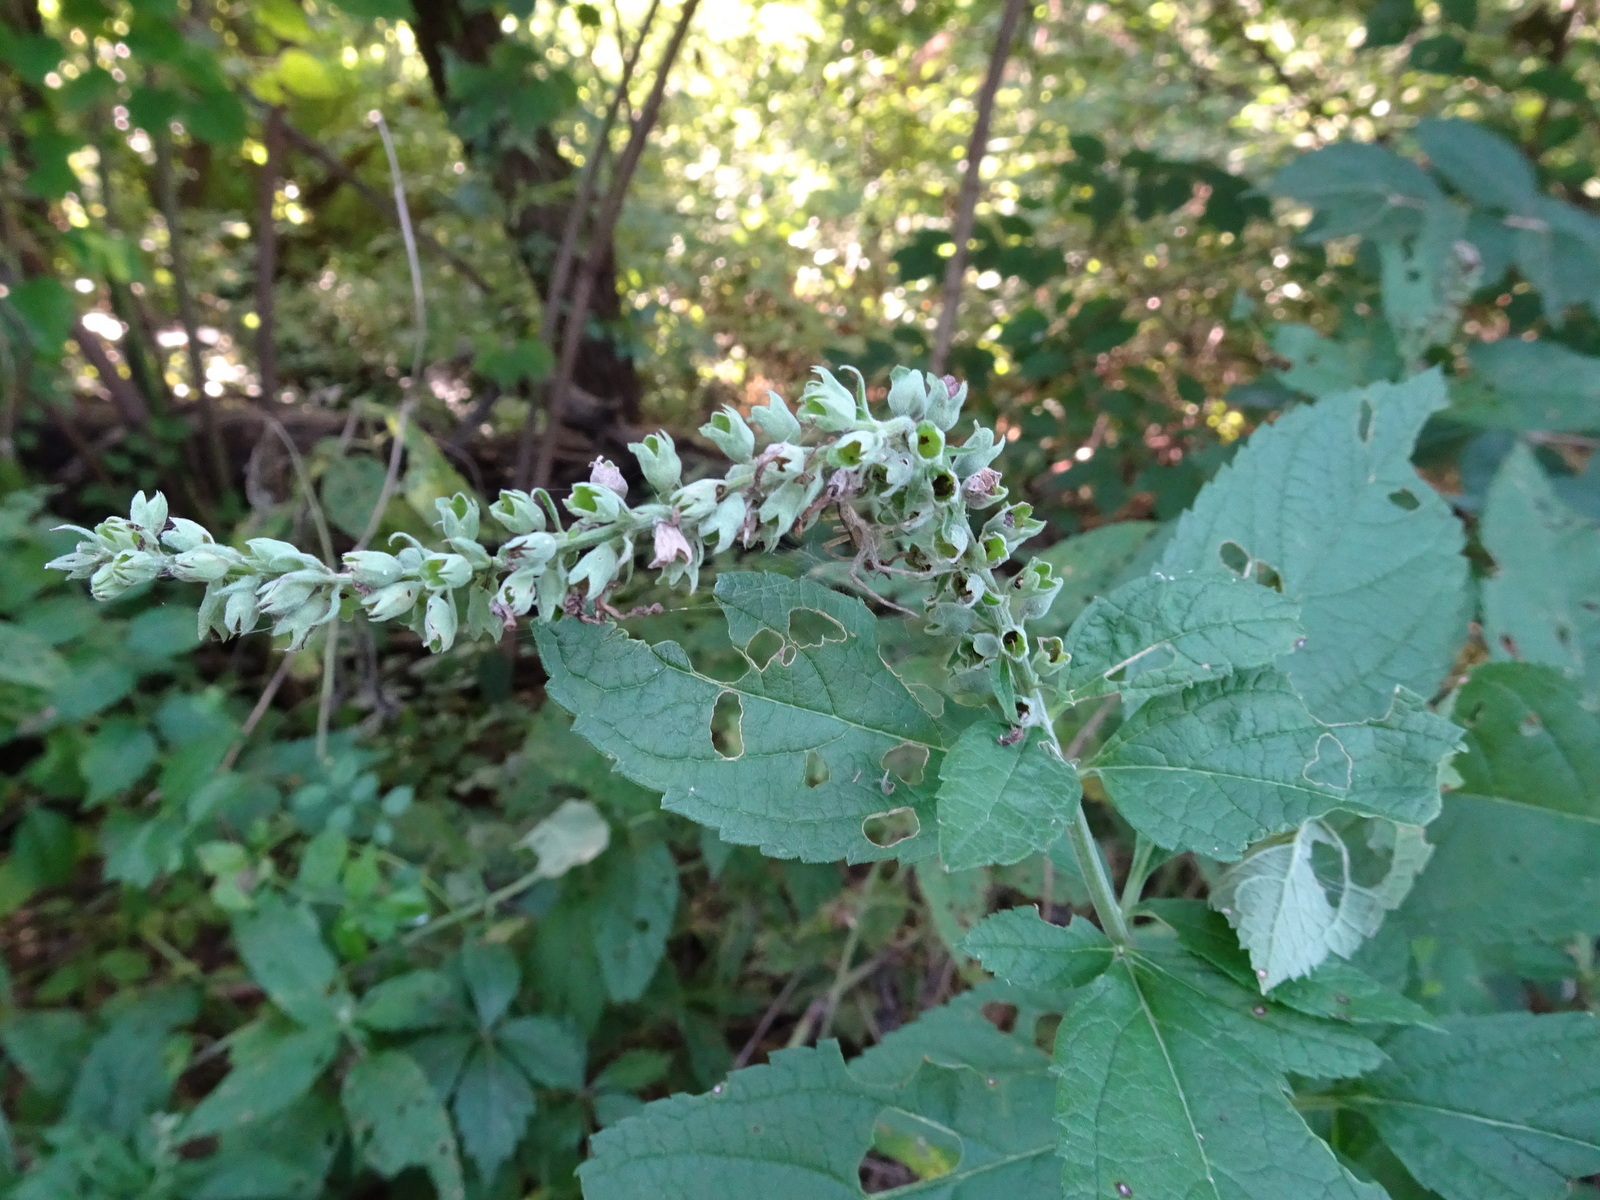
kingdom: Plantae
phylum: Tracheophyta
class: Magnoliopsida
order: Lamiales
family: Lamiaceae
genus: Teucrium
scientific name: Teucrium canadense
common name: American germander
